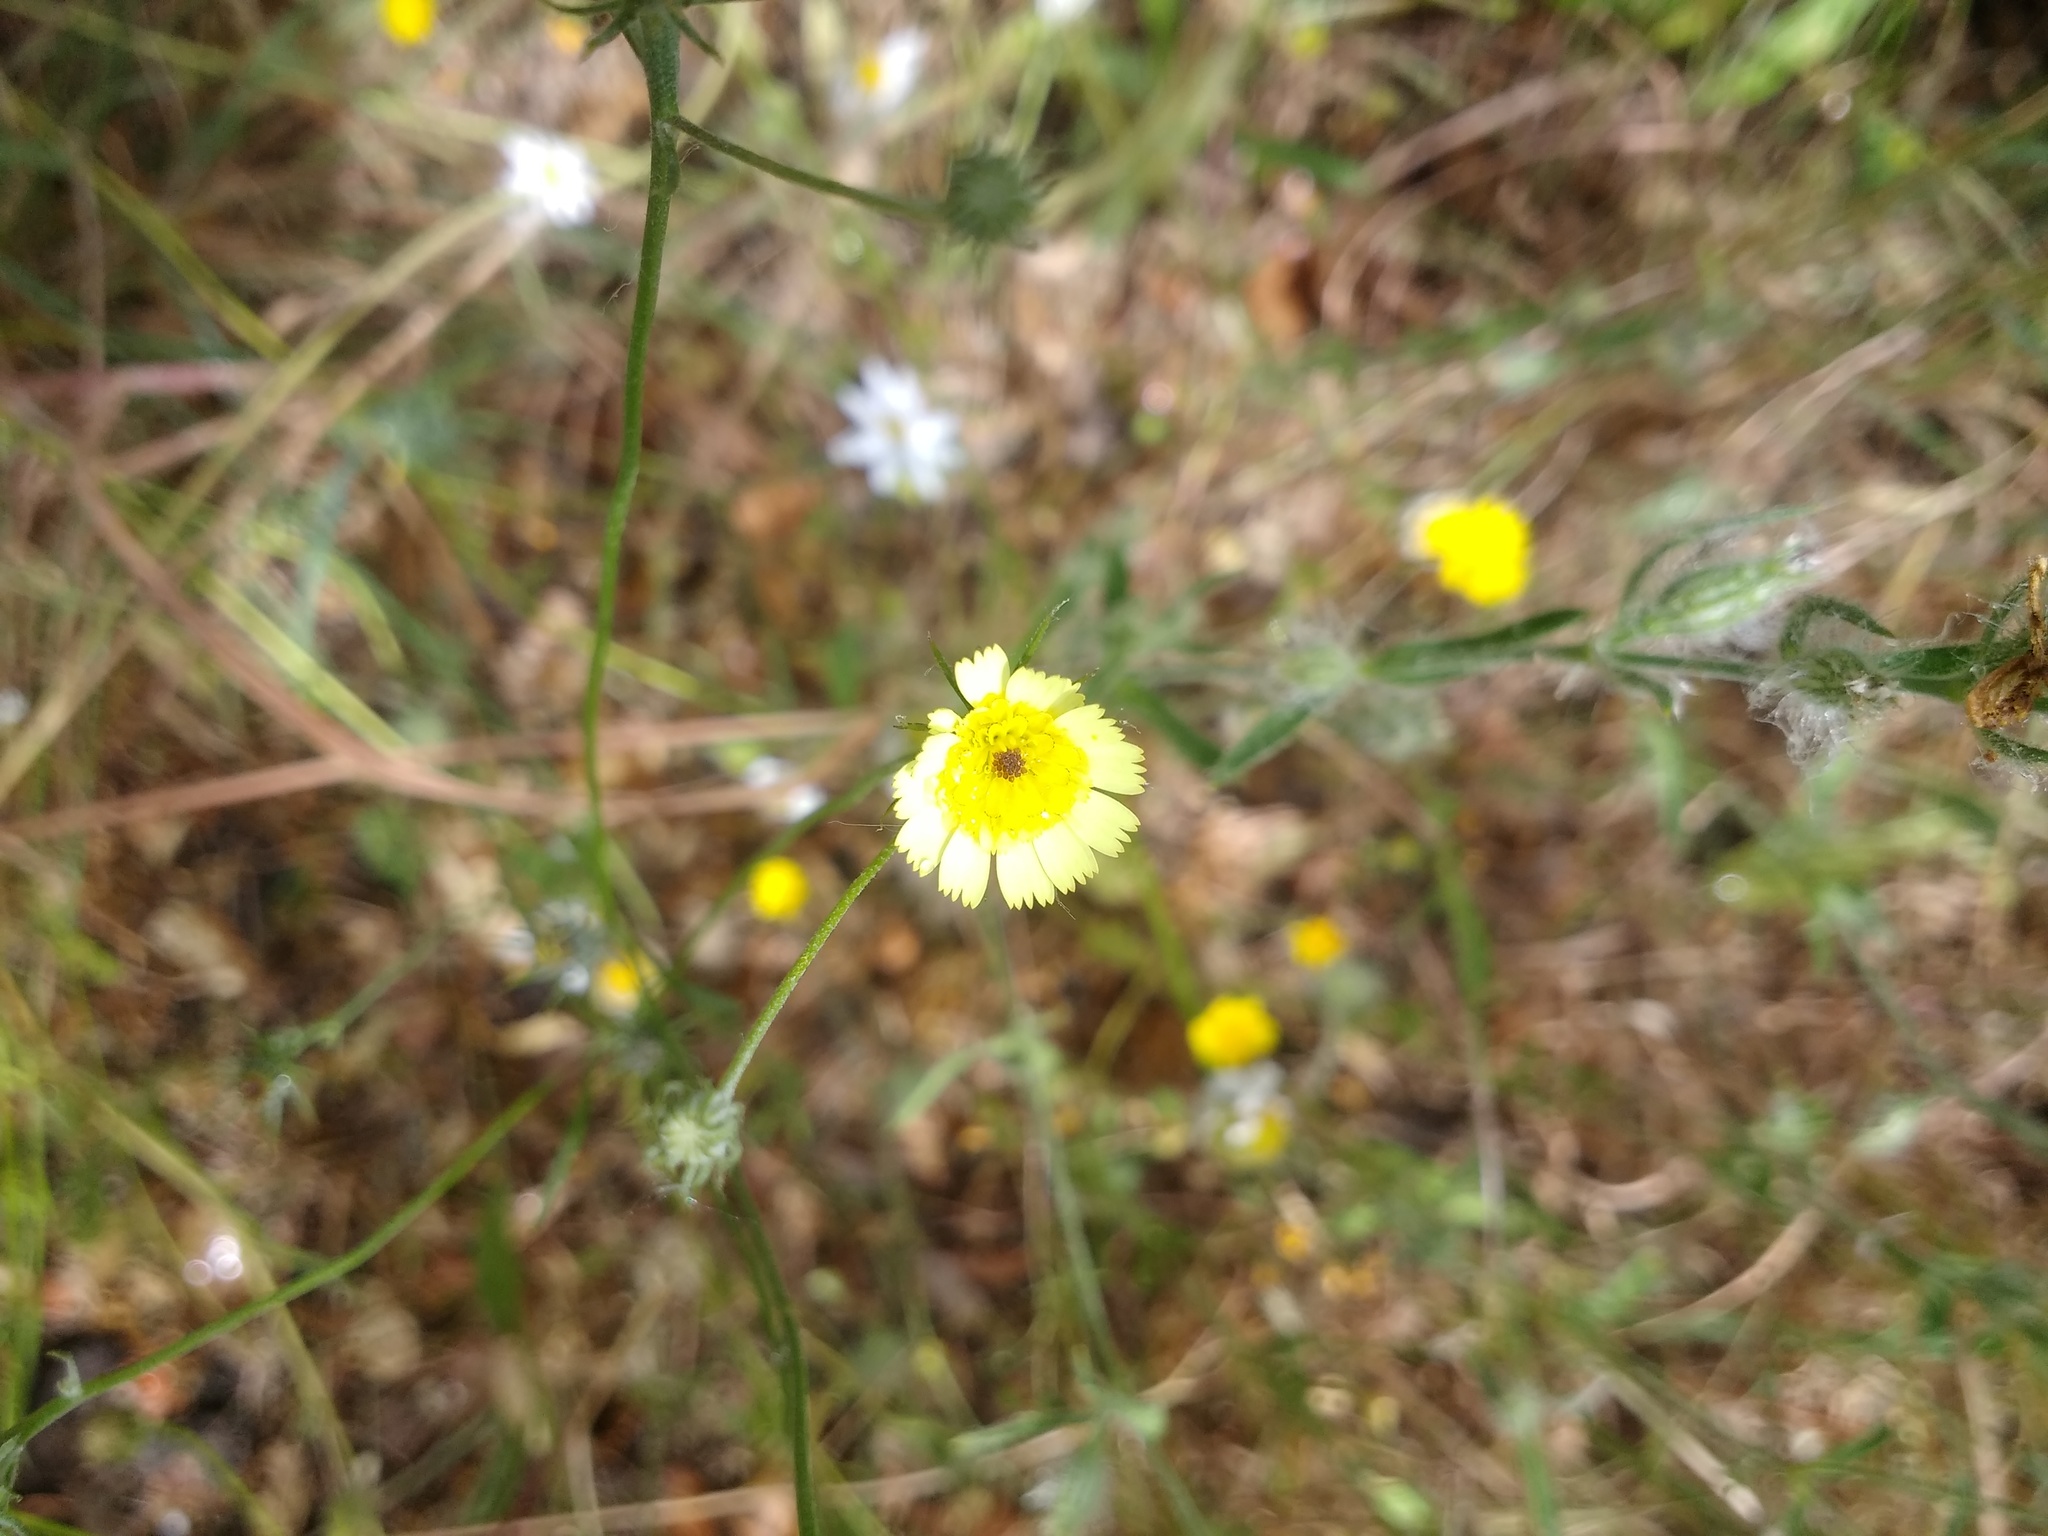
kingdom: Plantae
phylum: Tracheophyta
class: Magnoliopsida
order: Asterales
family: Asteraceae
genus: Tolpis
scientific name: Tolpis barbata
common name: Yellow hawkweed
